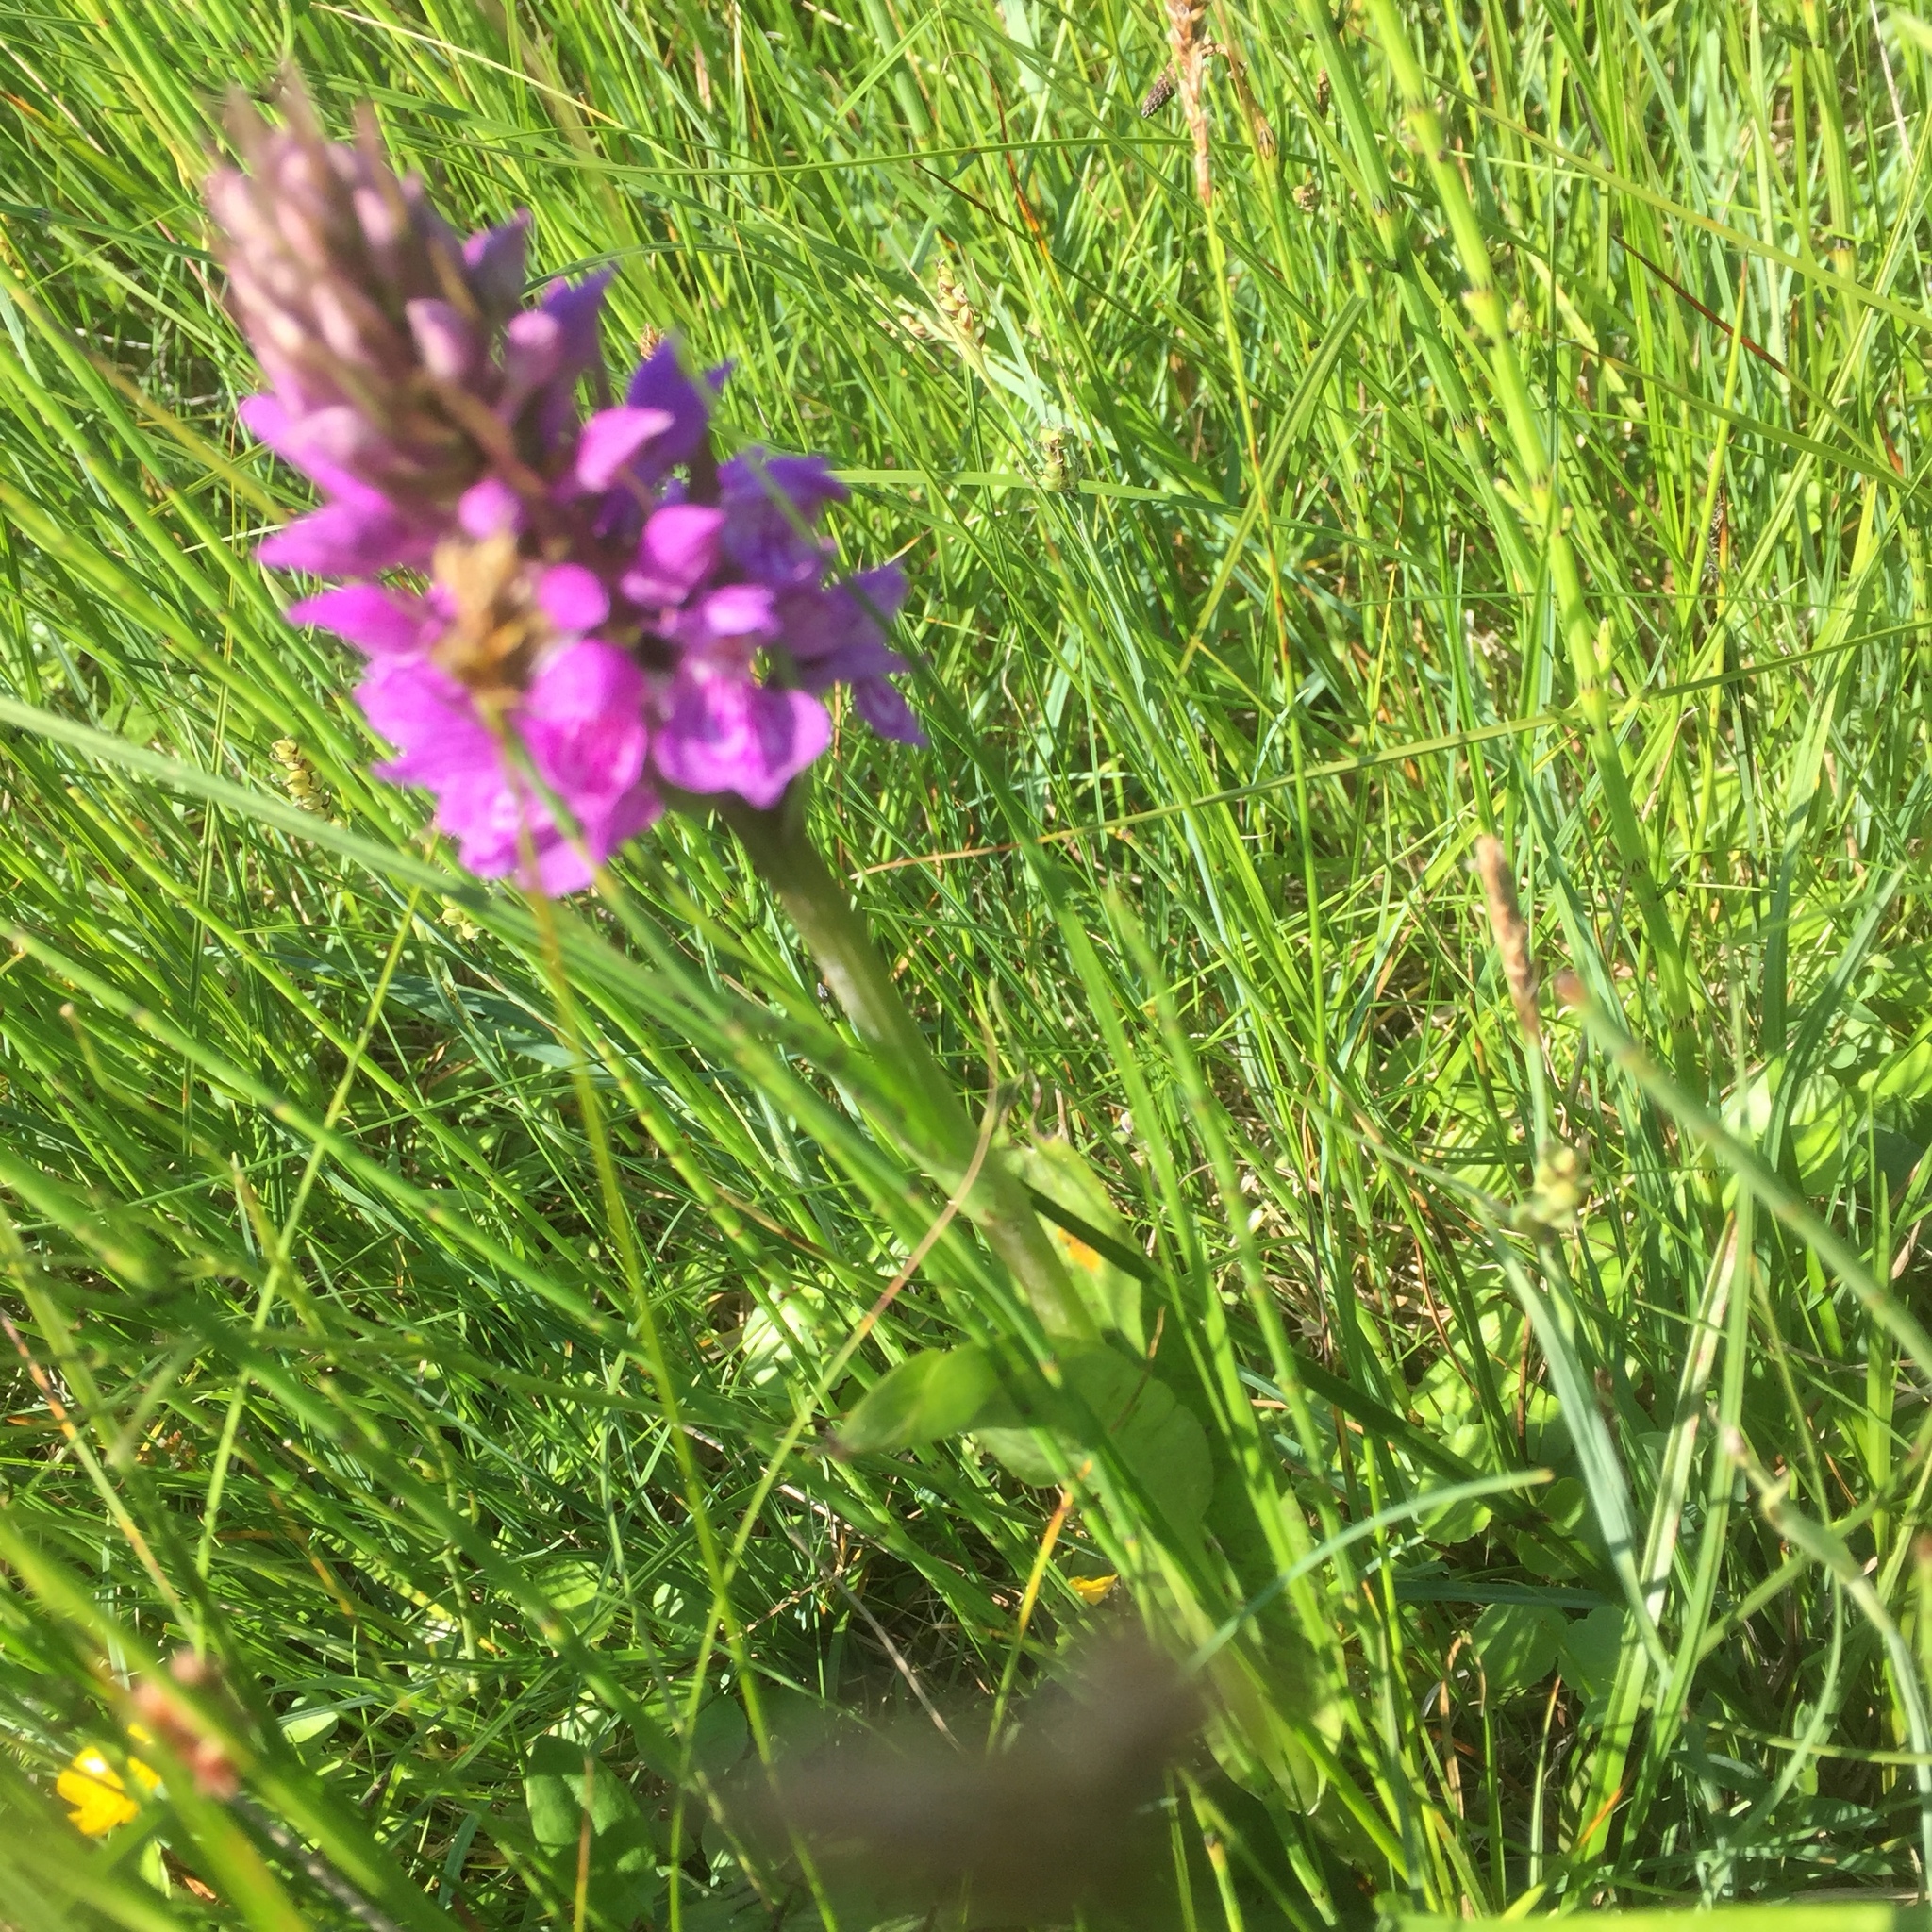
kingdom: Plantae
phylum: Tracheophyta
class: Liliopsida
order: Asparagales
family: Orchidaceae
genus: Dactylorhiza
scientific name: Dactylorhiza majalis
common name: Marsh orchid
